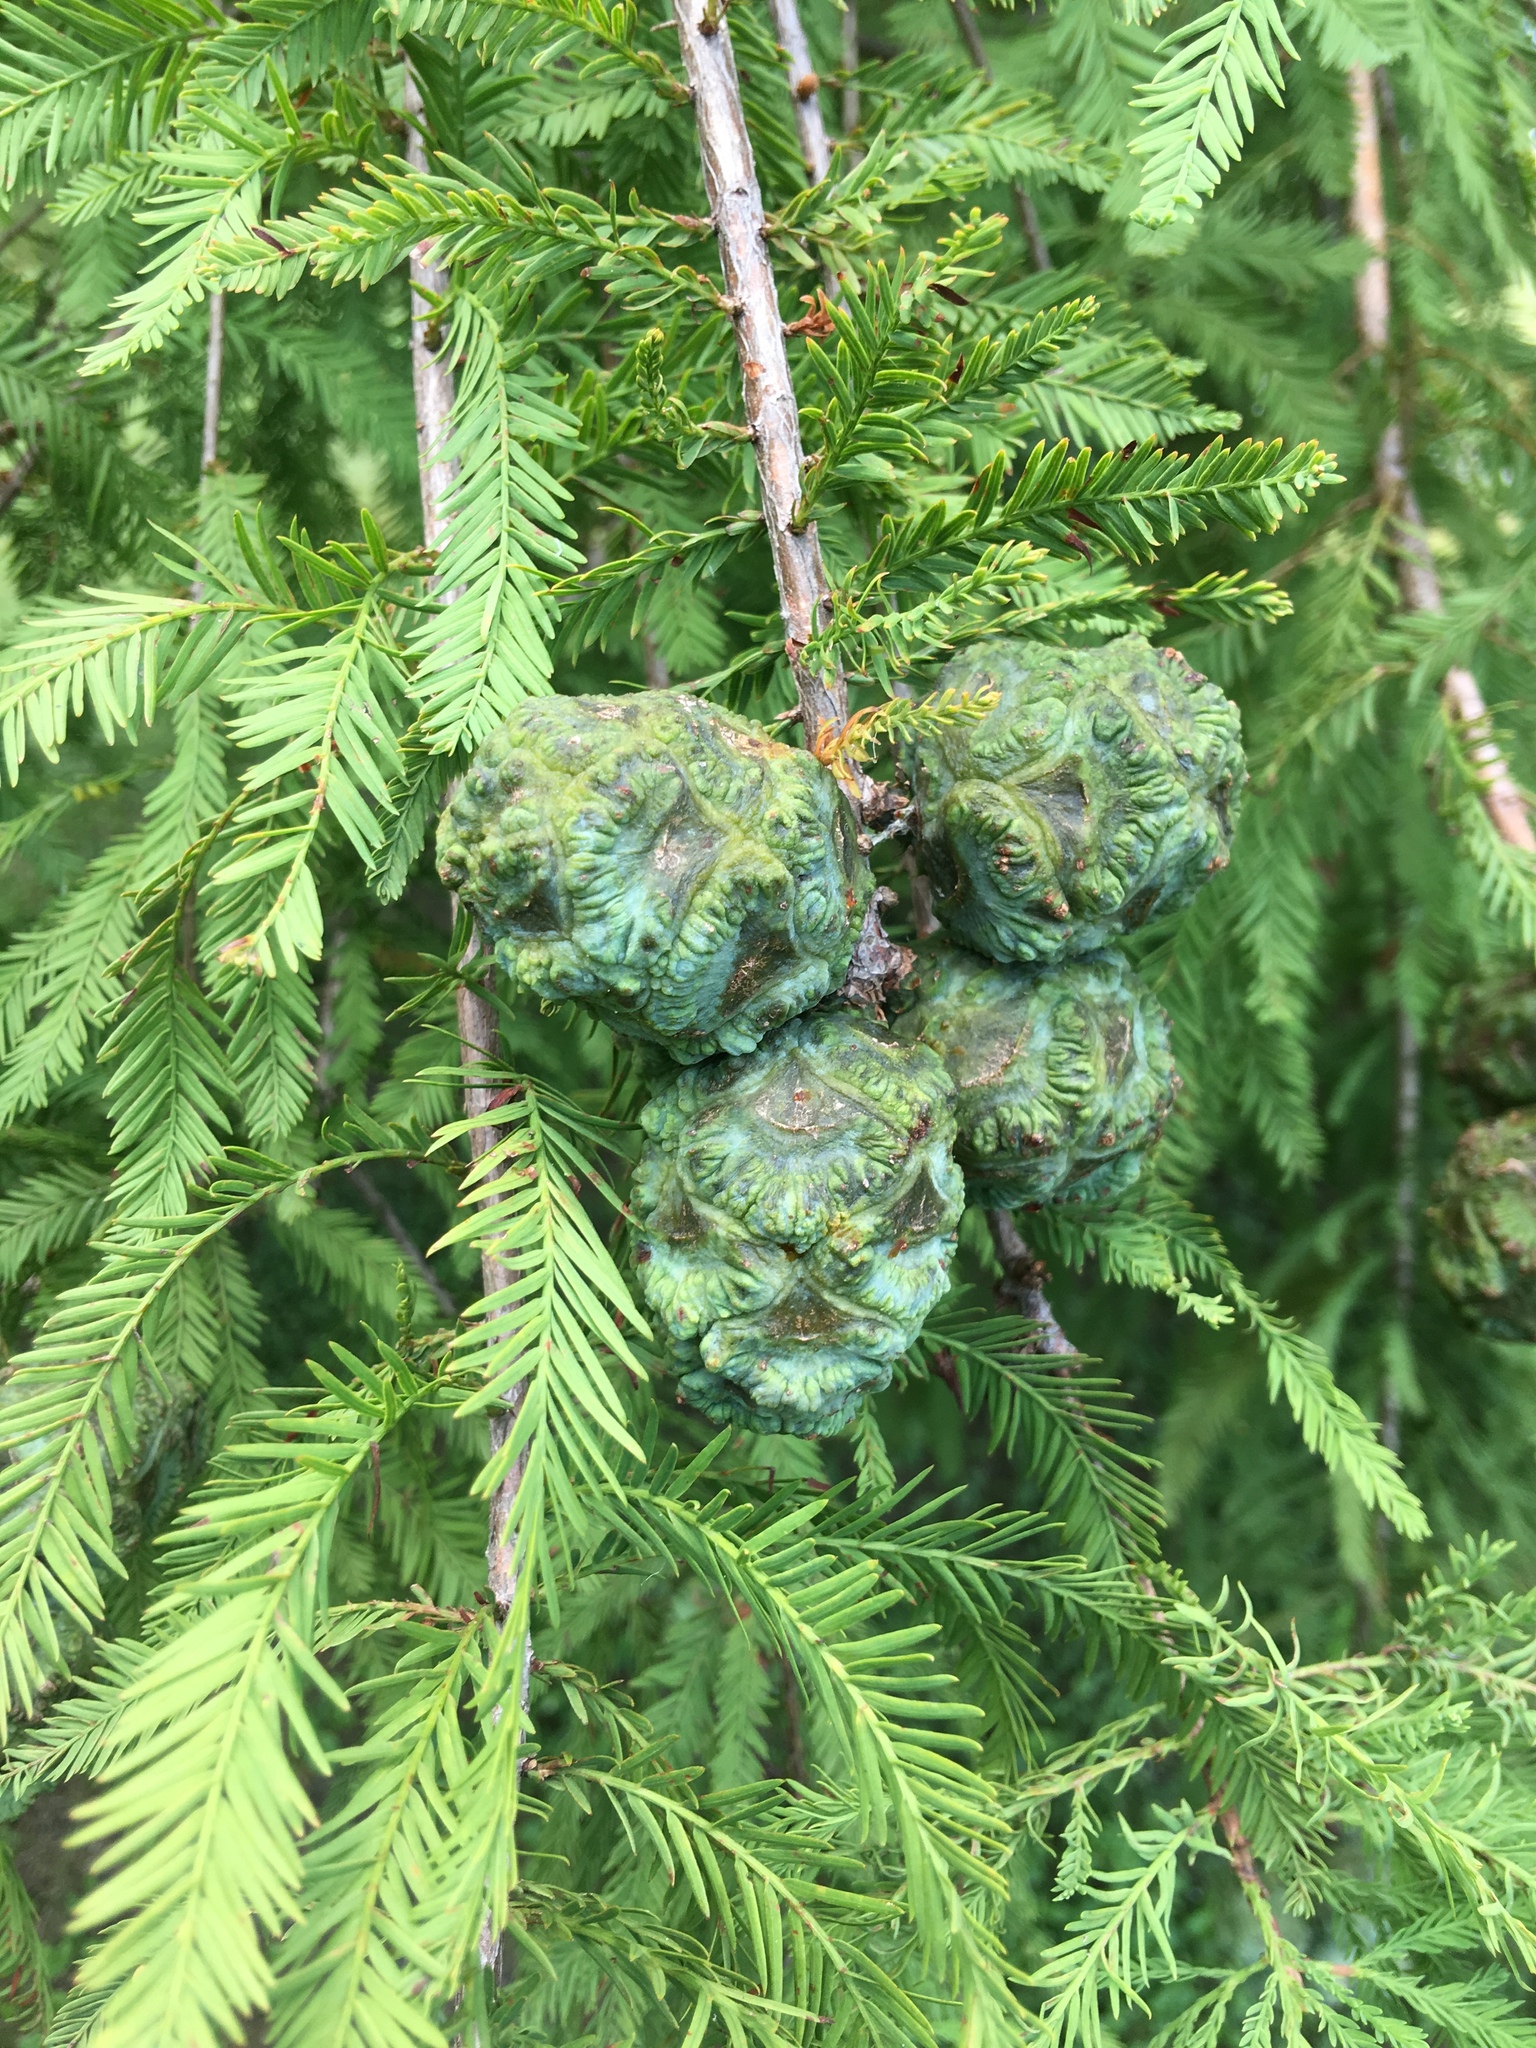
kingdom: Plantae
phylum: Tracheophyta
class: Pinopsida
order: Pinales
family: Cupressaceae
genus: Taxodium
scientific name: Taxodium distichum
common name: Bald cypress
